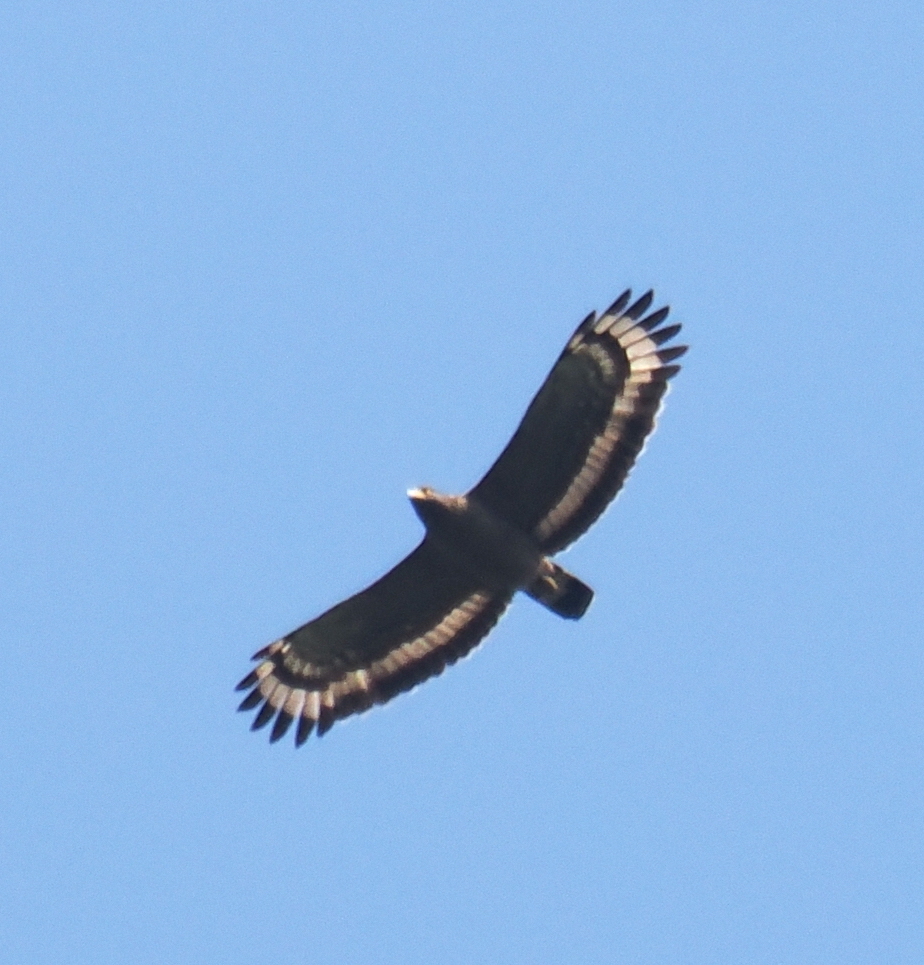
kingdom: Animalia
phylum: Chordata
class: Aves
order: Accipitriformes
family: Accipitridae
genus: Spilornis
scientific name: Spilornis cheela
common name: Crested serpent eagle
